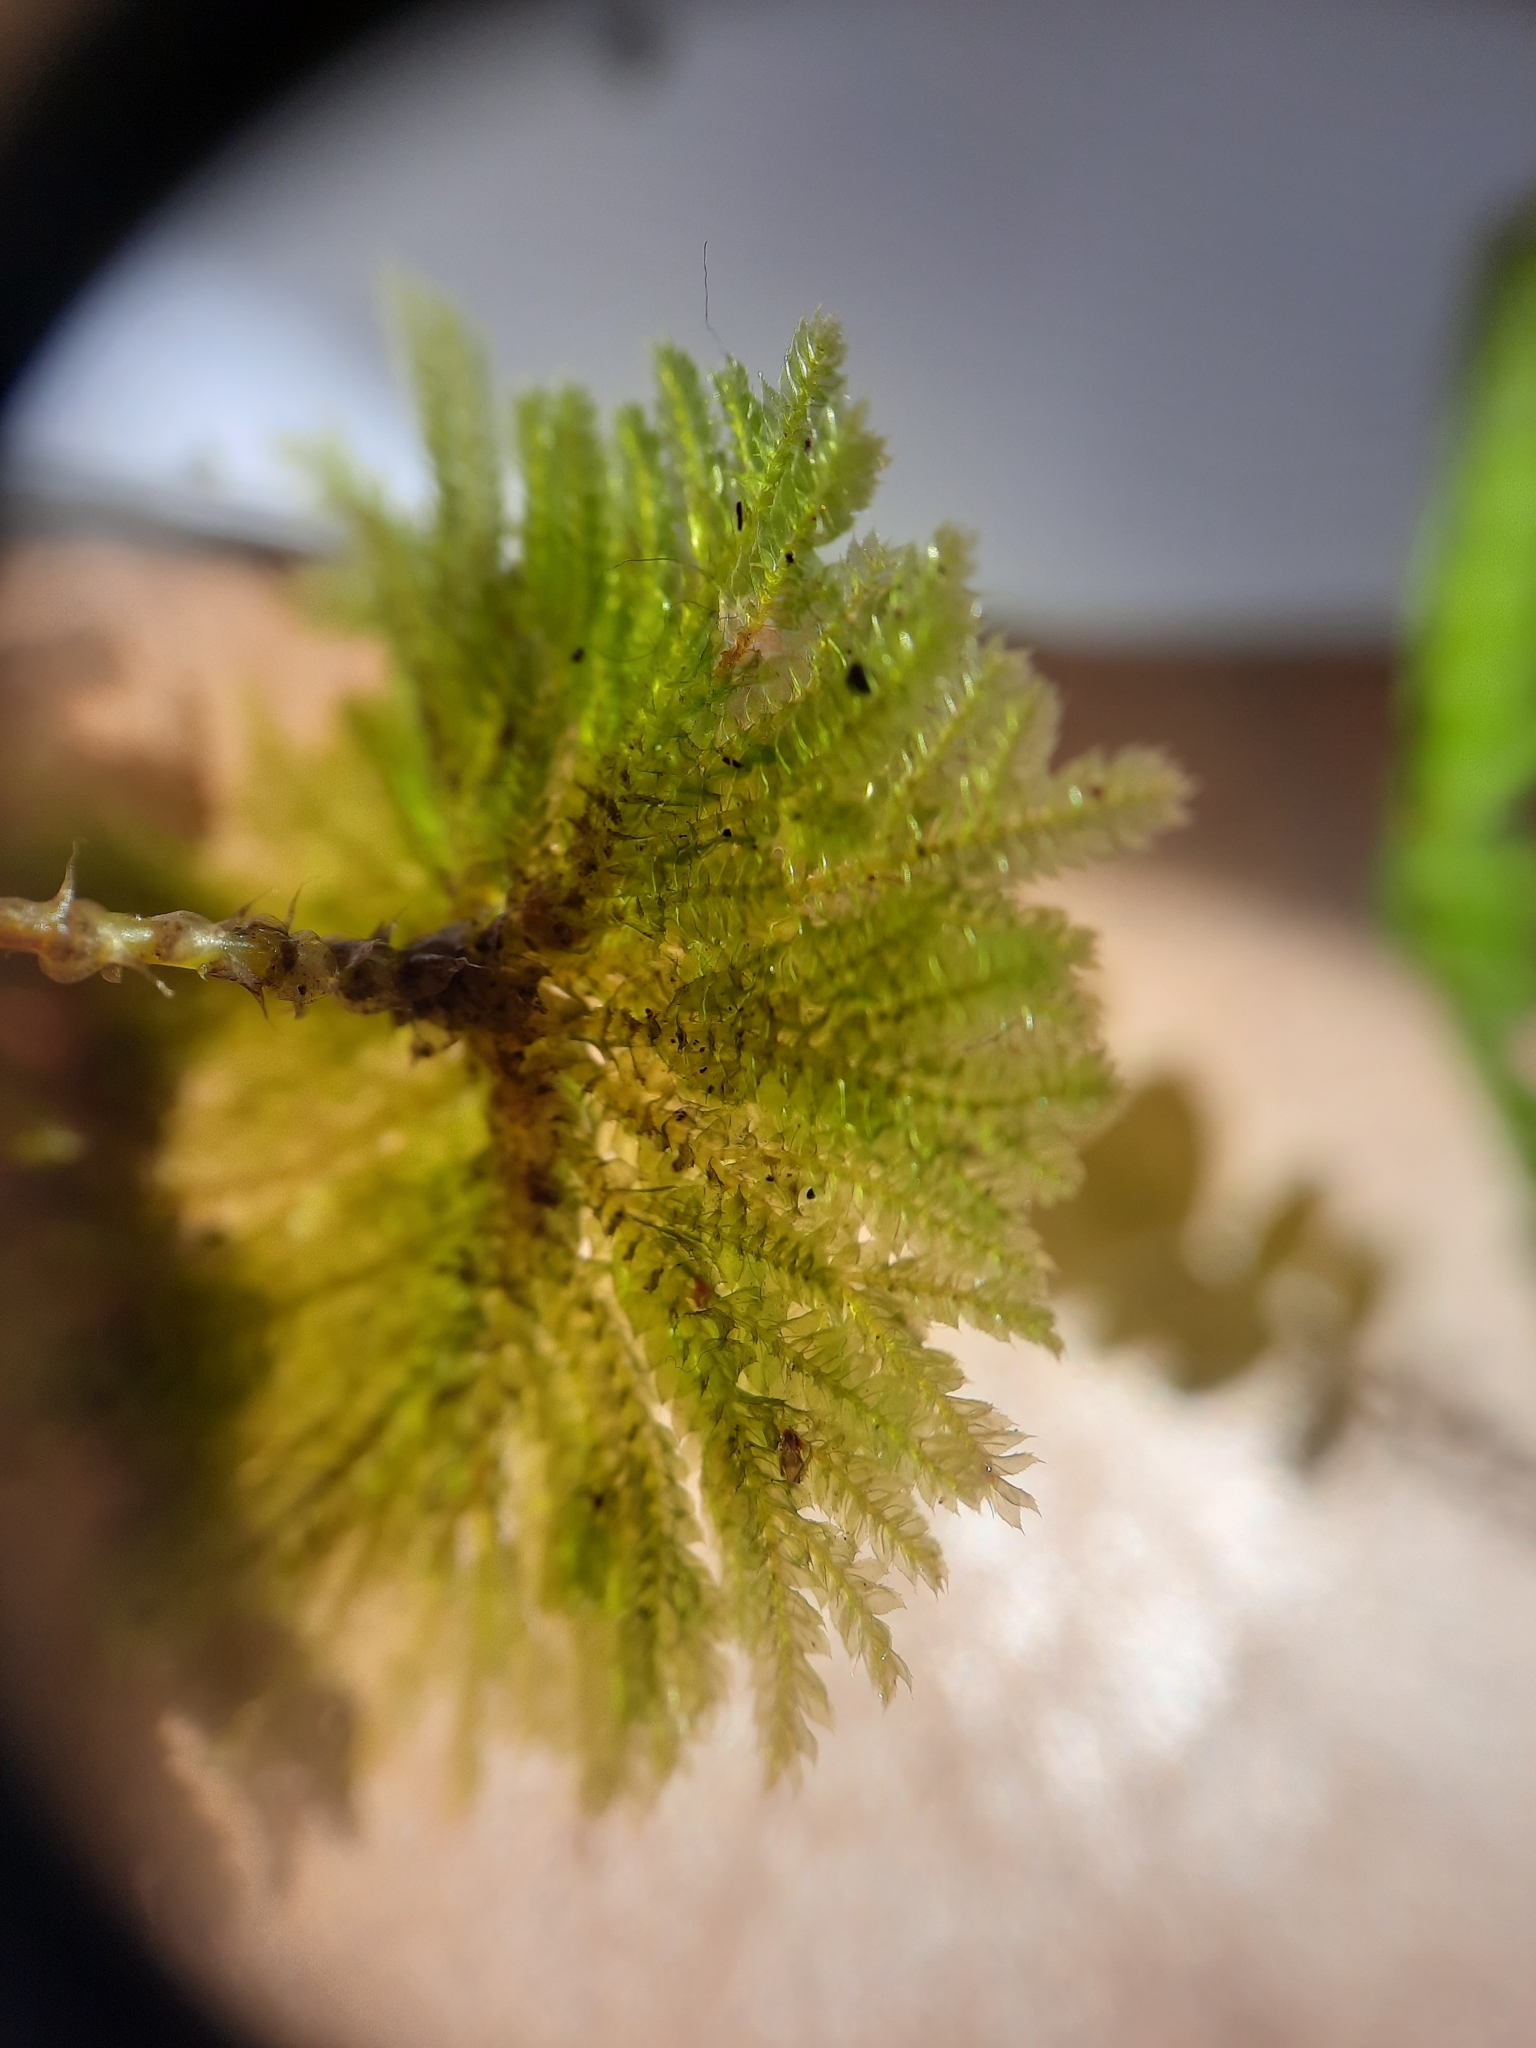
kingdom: Plantae
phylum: Bryophyta
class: Bryopsida
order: Hypopterygiales
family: Hypopterygiaceae
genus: Canalohypopterygium
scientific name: Canalohypopterygium tamariscinum
